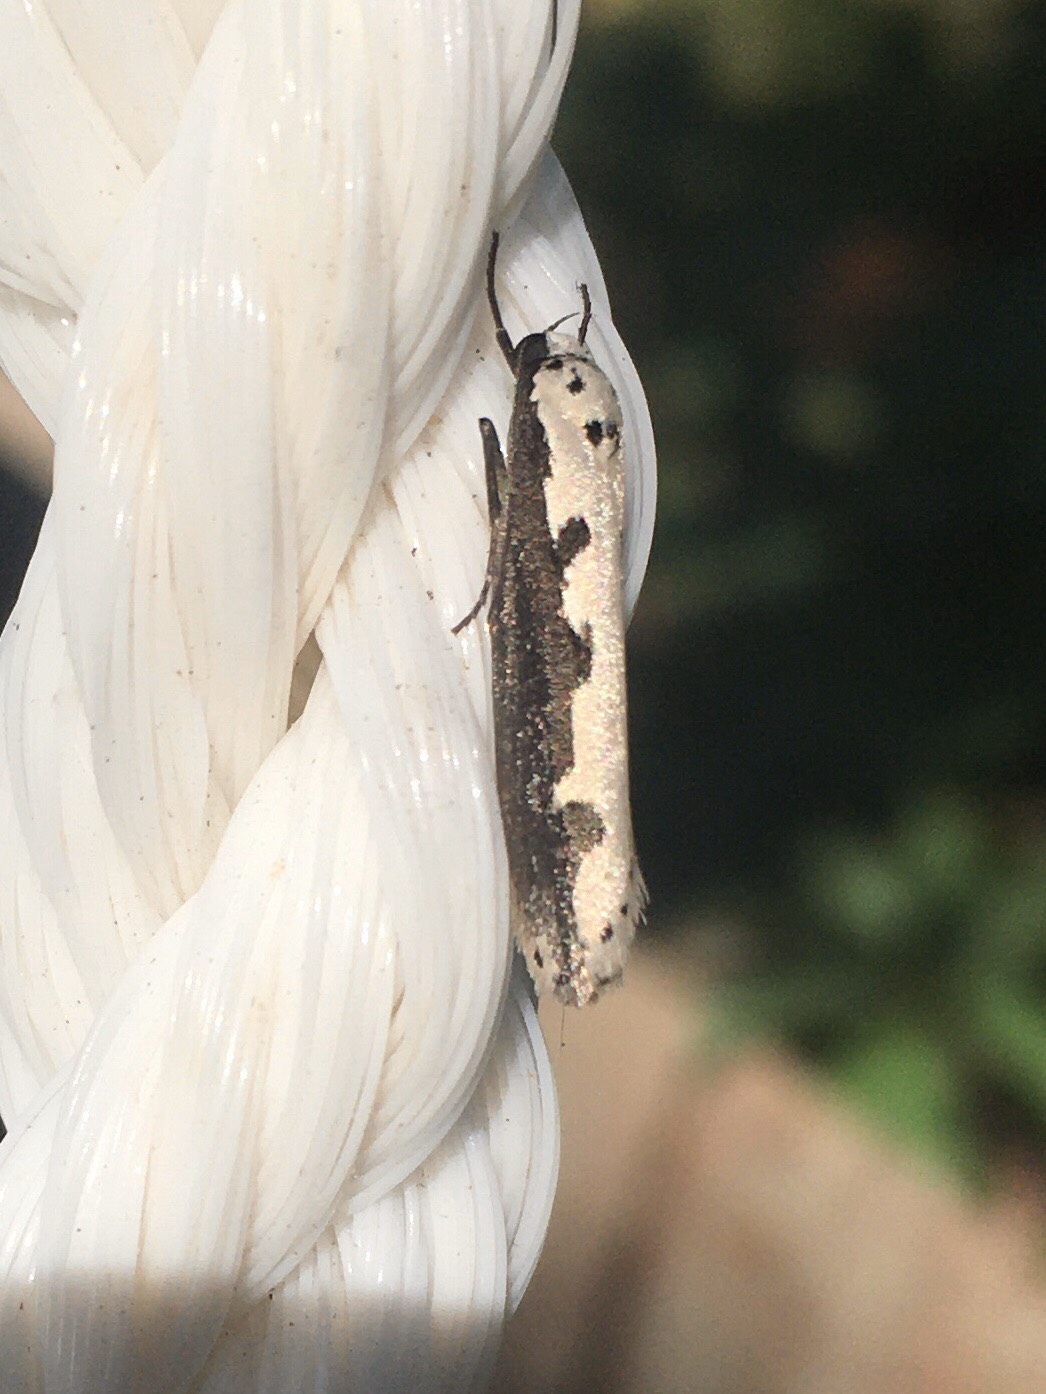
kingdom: Animalia
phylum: Arthropoda
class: Insecta
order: Lepidoptera
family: Ethmiidae
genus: Ethmia
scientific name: Ethmia bipunctella
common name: Bordered ermel
